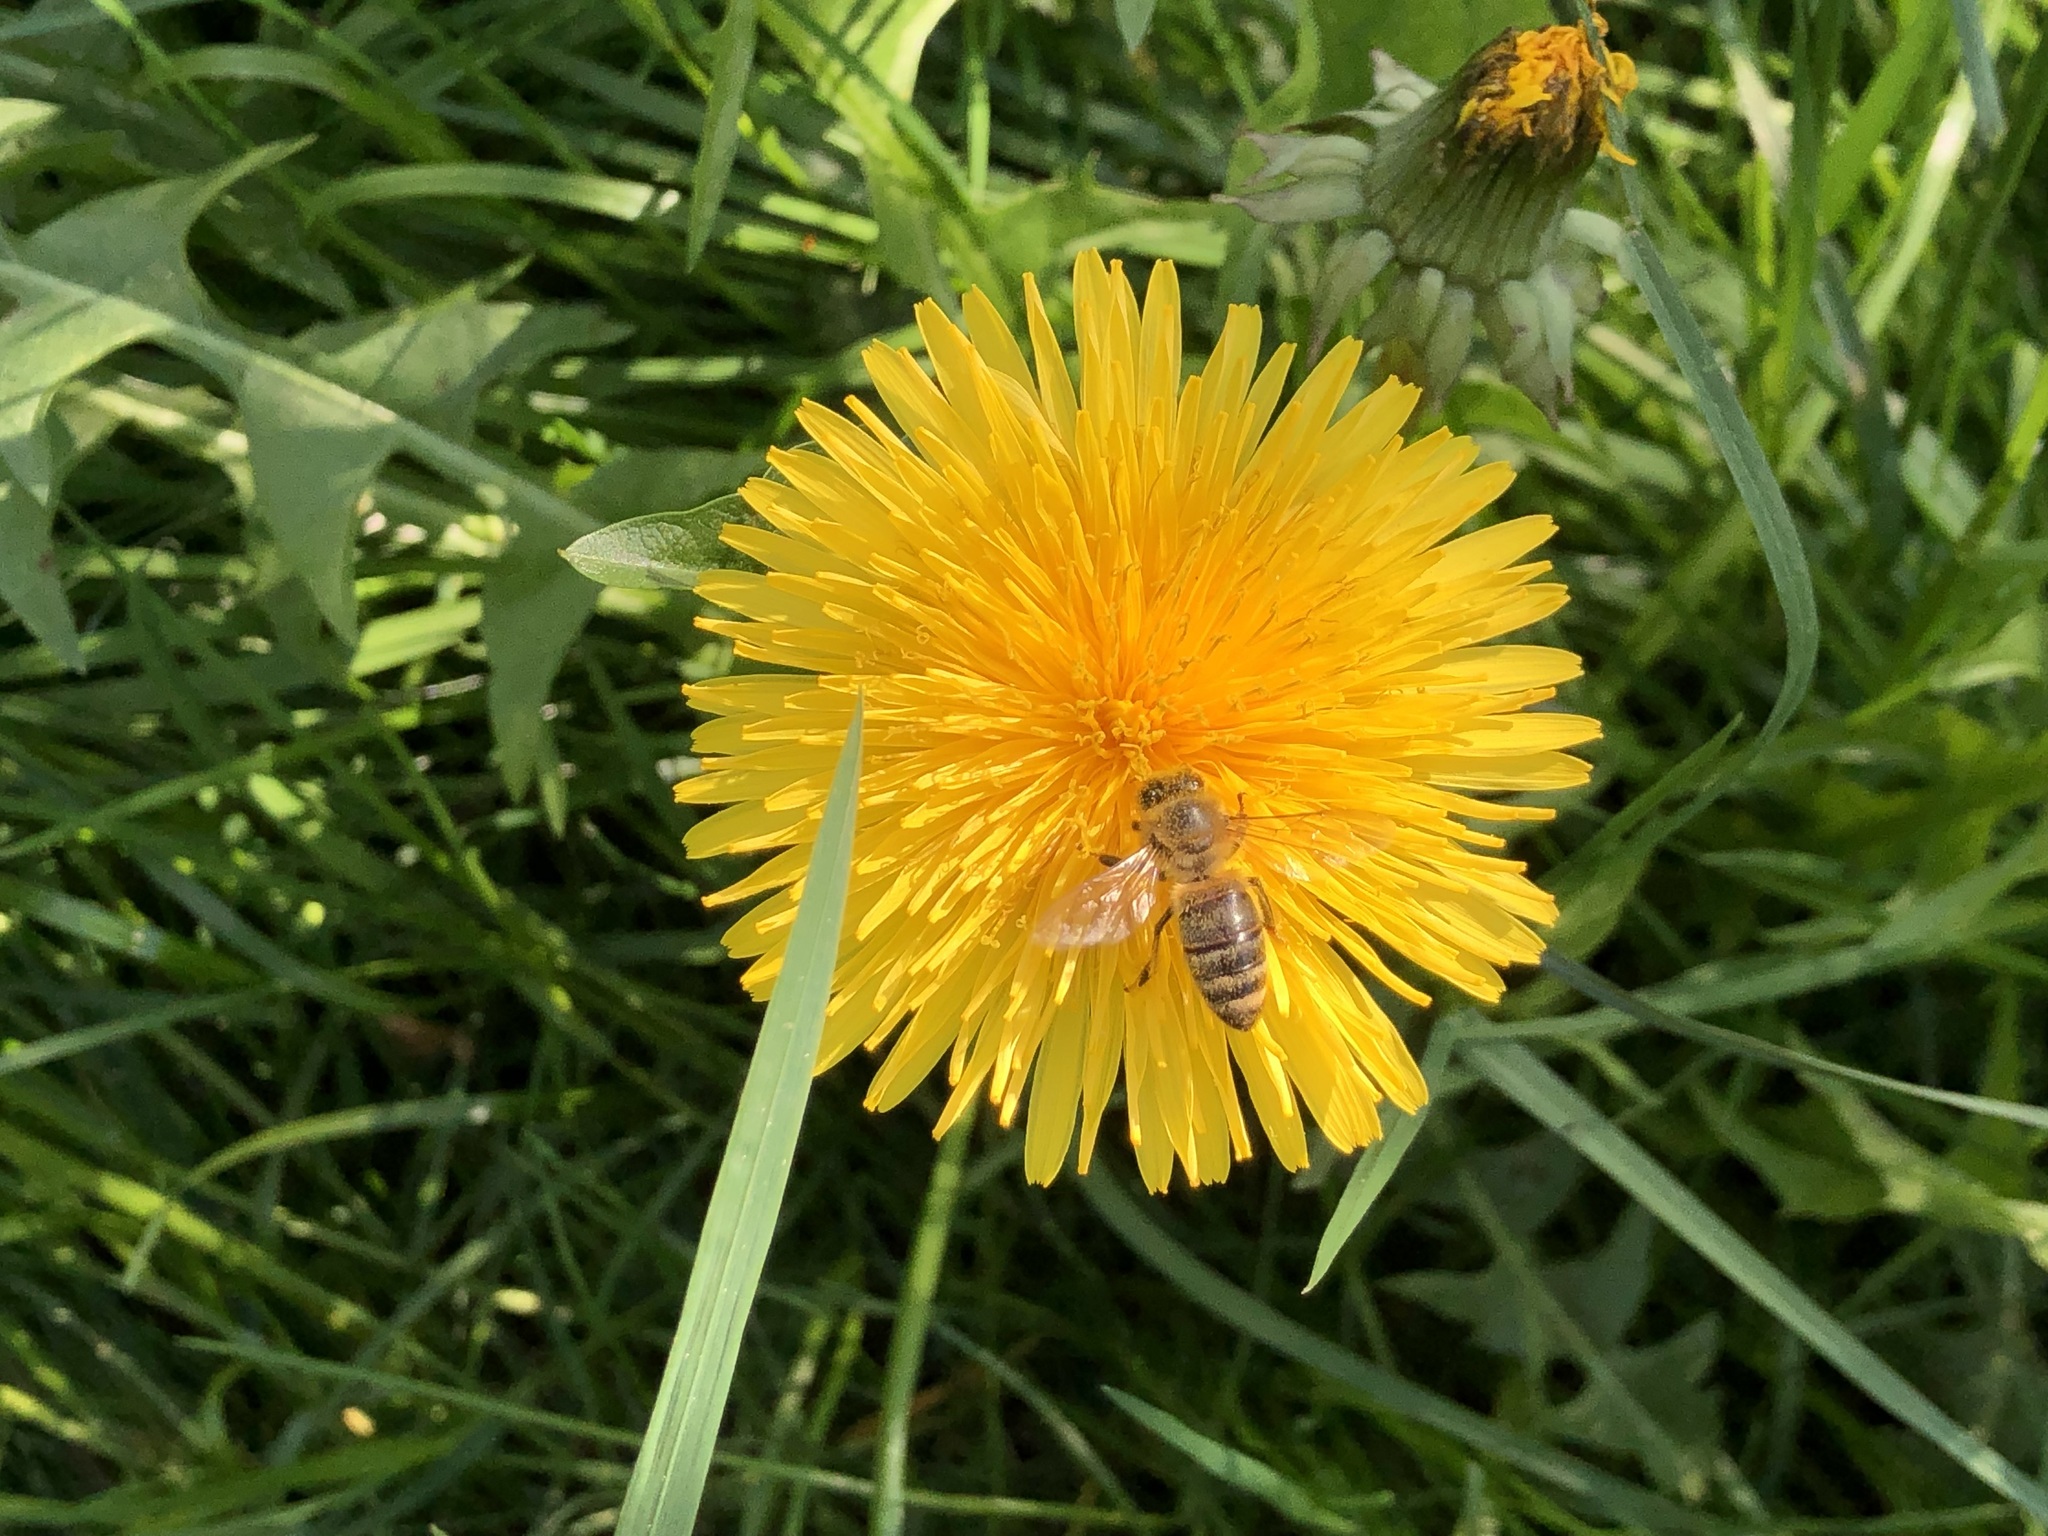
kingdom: Animalia
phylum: Arthropoda
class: Insecta
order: Hymenoptera
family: Apidae
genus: Apis
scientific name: Apis mellifera
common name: Honey bee
